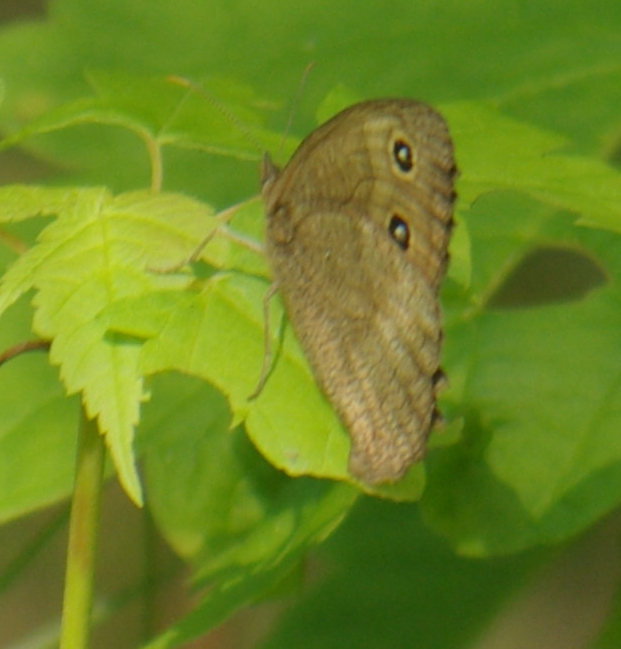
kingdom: Animalia
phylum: Arthropoda
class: Insecta
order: Lepidoptera
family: Nymphalidae
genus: Cercyonis
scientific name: Cercyonis pegala
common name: Common wood-nymph
